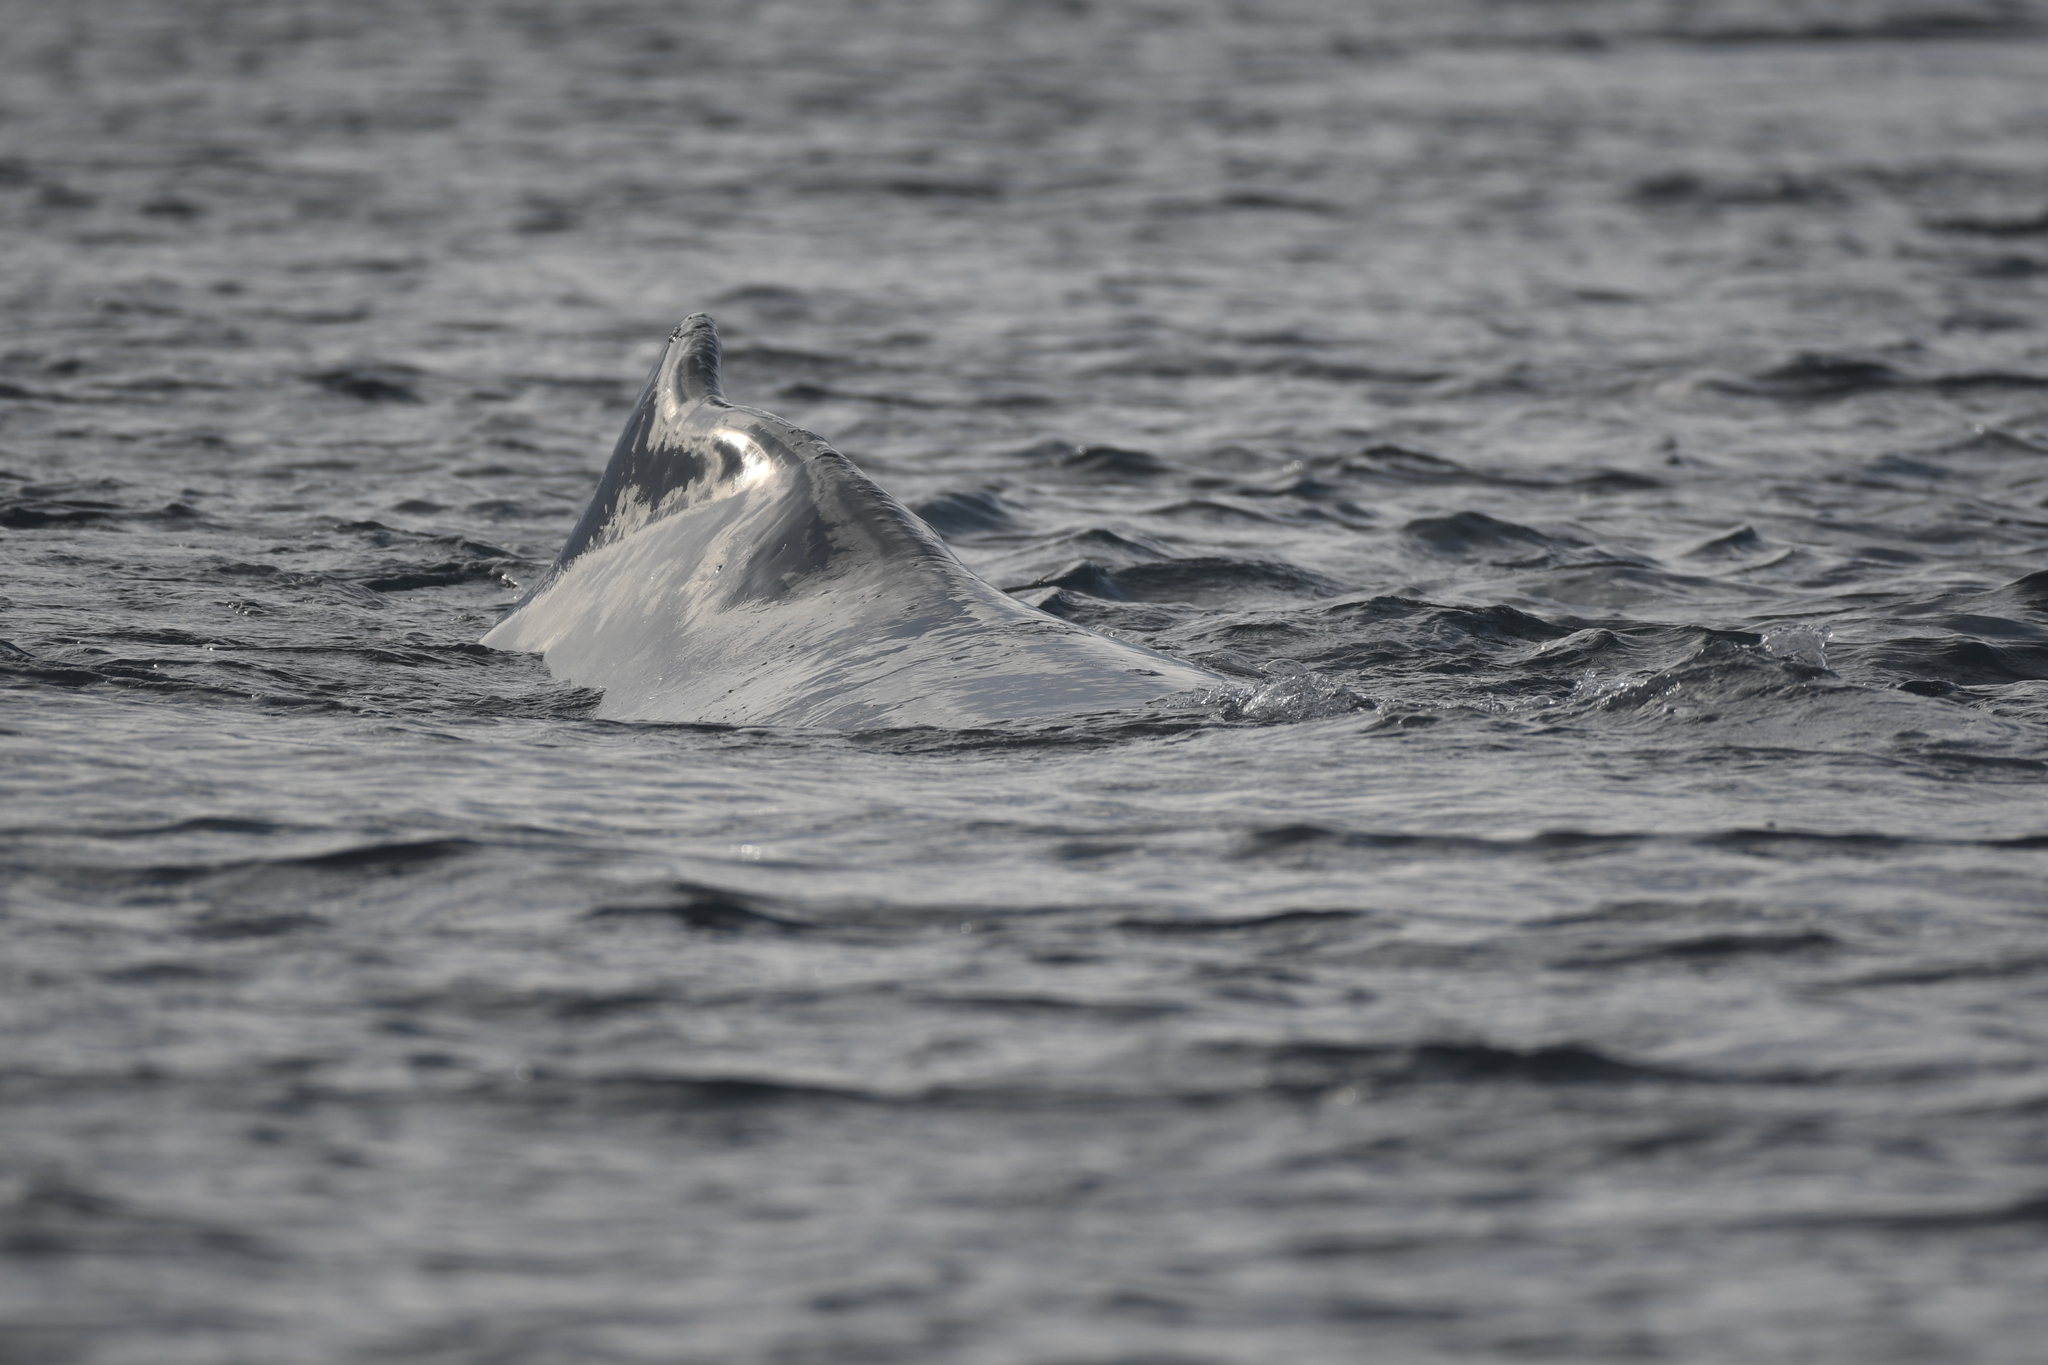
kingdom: Animalia
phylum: Chordata
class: Mammalia
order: Cetacea
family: Balaenopteridae
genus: Megaptera
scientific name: Megaptera novaeangliae
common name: Humpback whale
